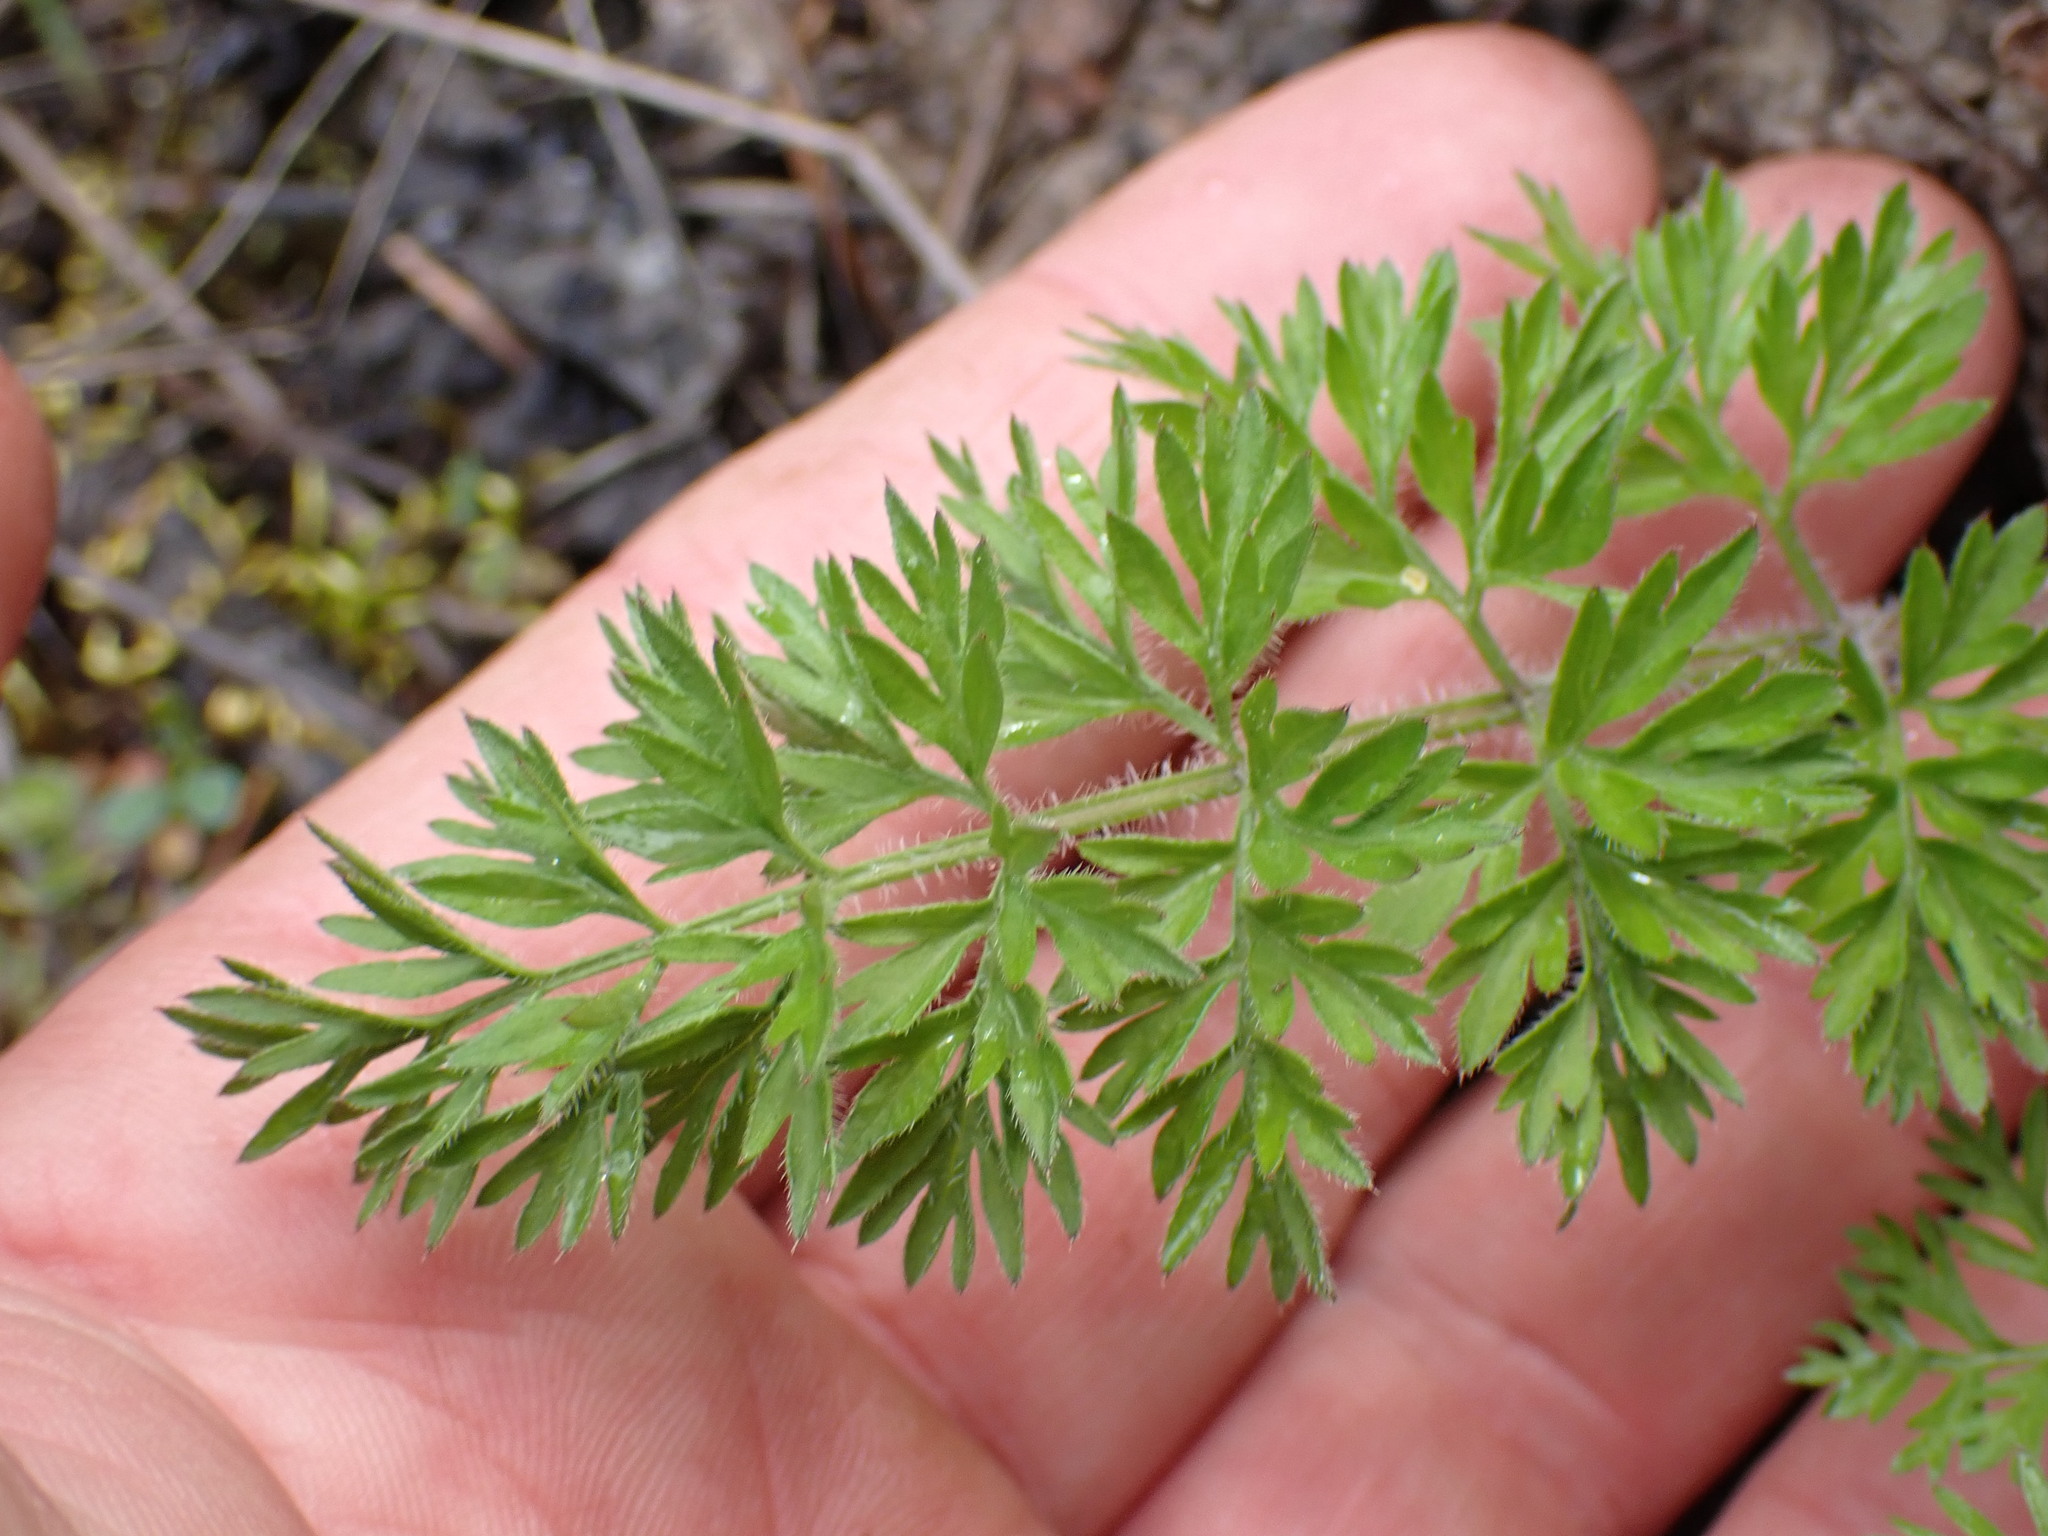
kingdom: Plantae
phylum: Tracheophyta
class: Magnoliopsida
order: Apiales
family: Apiaceae
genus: Daucus
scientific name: Daucus carota
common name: Wild carrot
